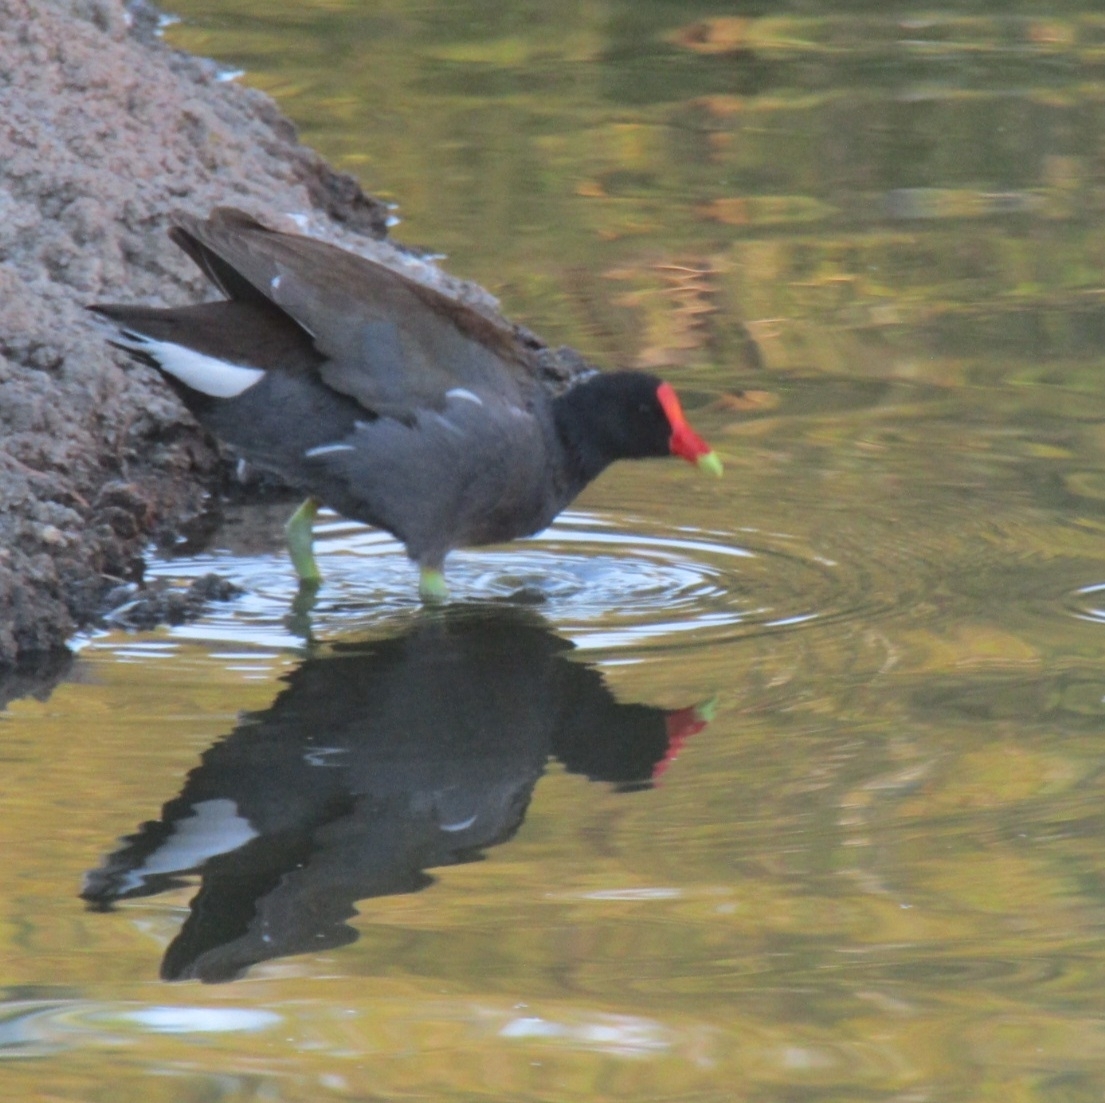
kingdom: Animalia
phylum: Chordata
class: Aves
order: Gruiformes
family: Rallidae
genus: Gallinula
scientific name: Gallinula chloropus
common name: Common moorhen
